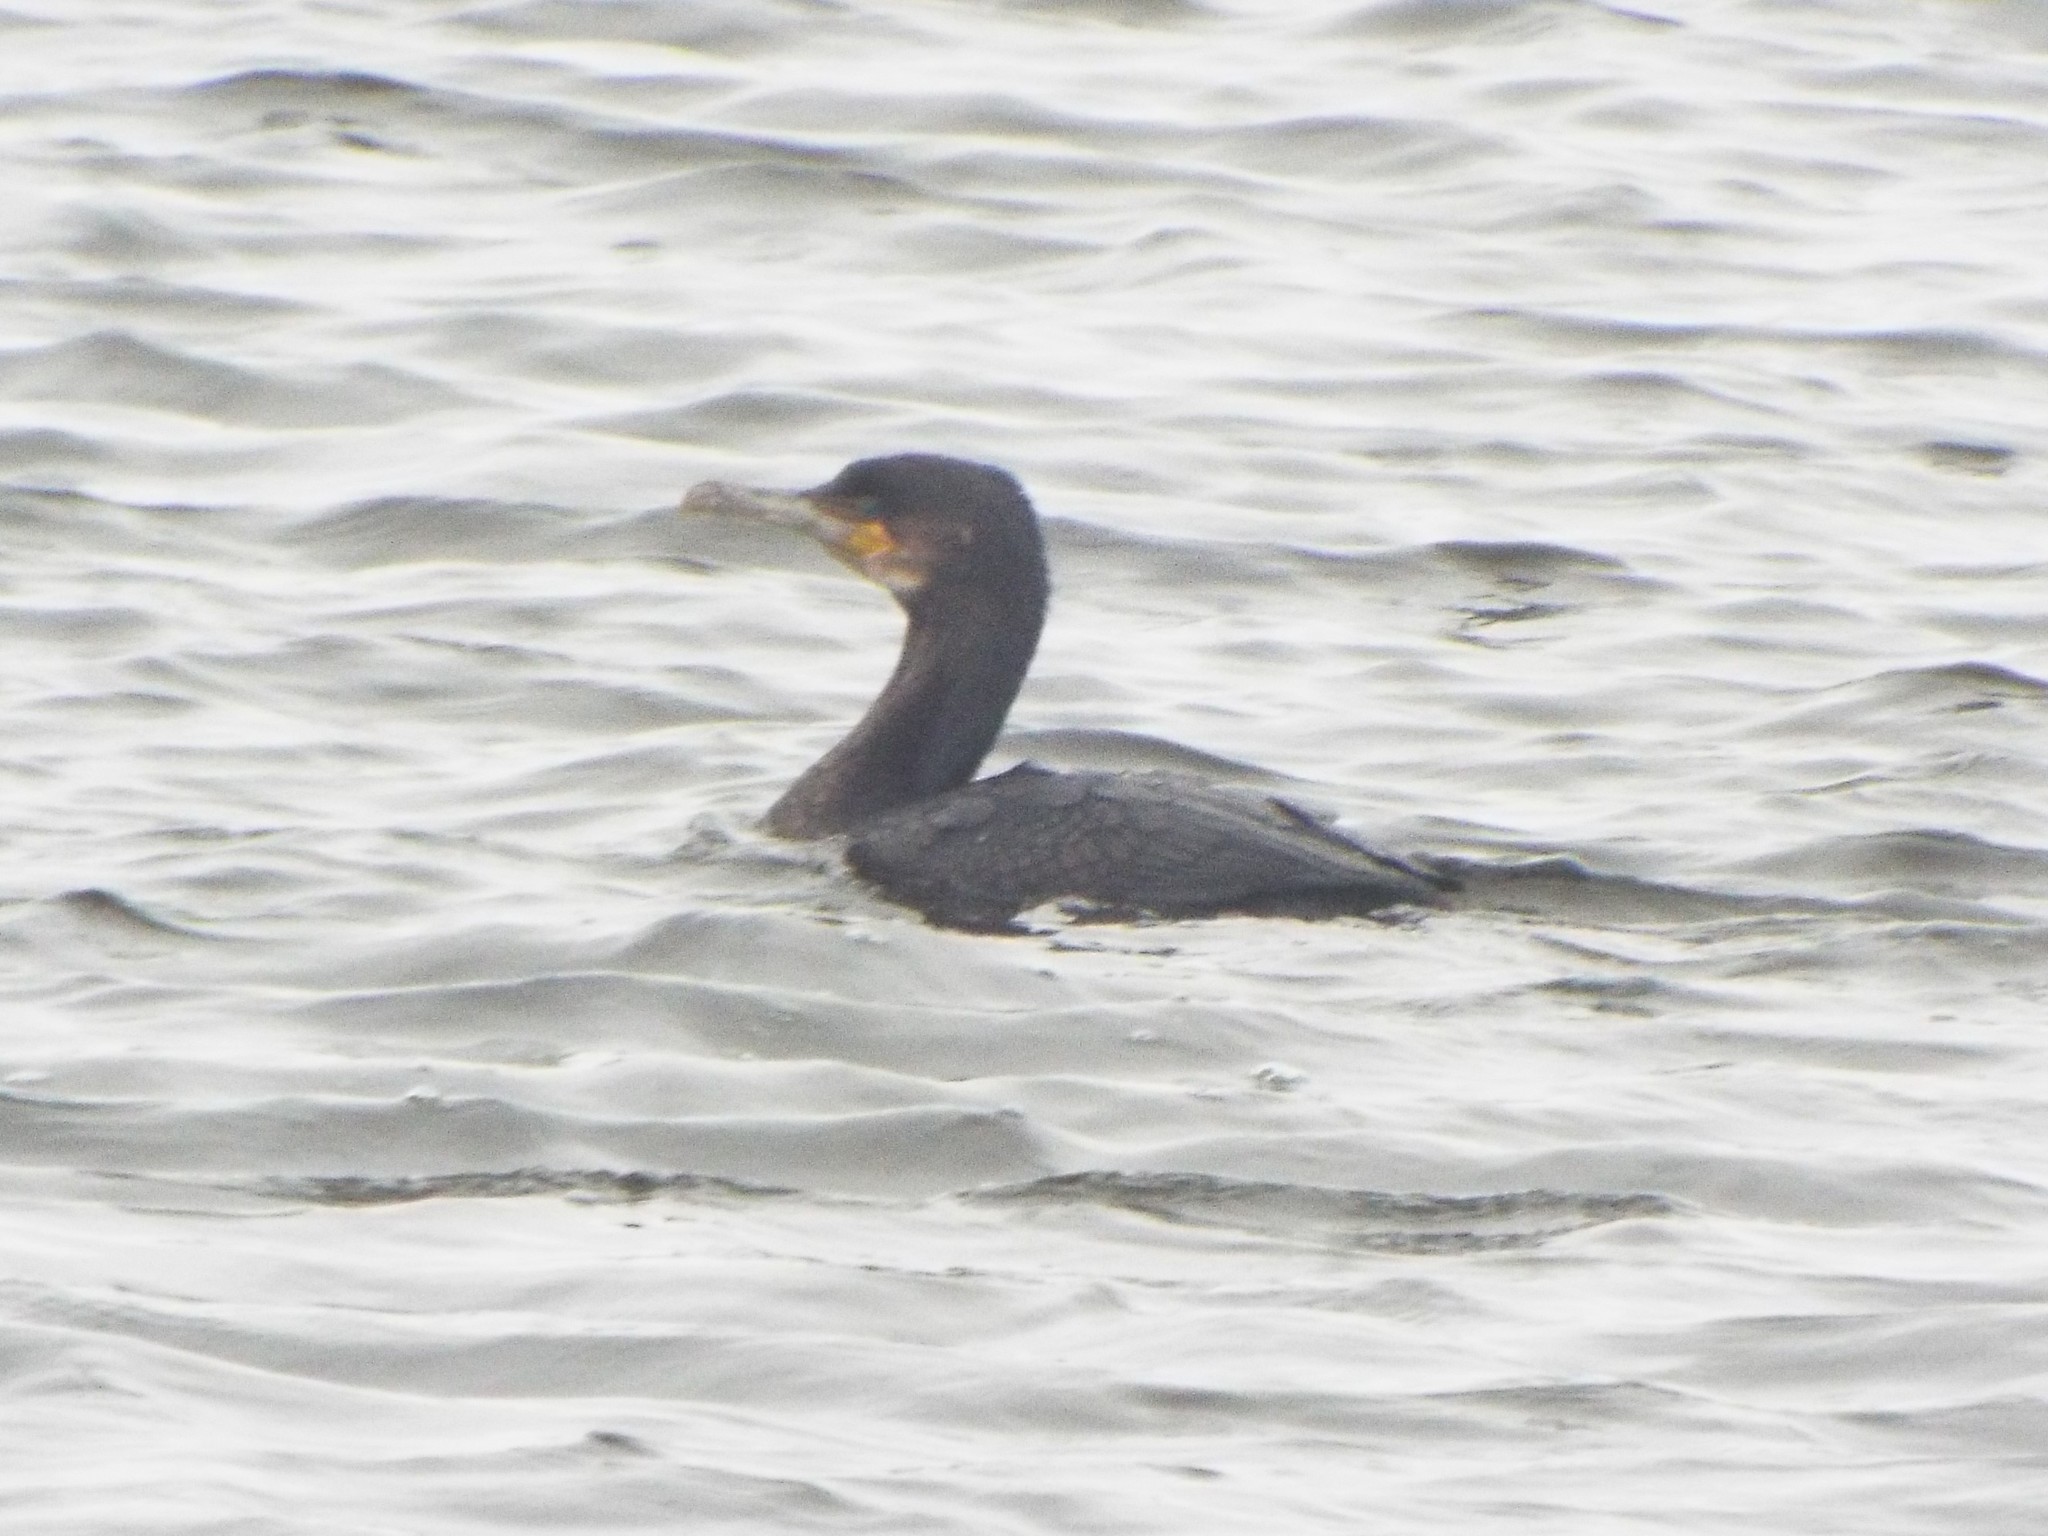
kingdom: Animalia
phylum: Chordata
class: Aves
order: Suliformes
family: Phalacrocoracidae
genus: Phalacrocorax
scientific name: Phalacrocorax carbo
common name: Great cormorant
